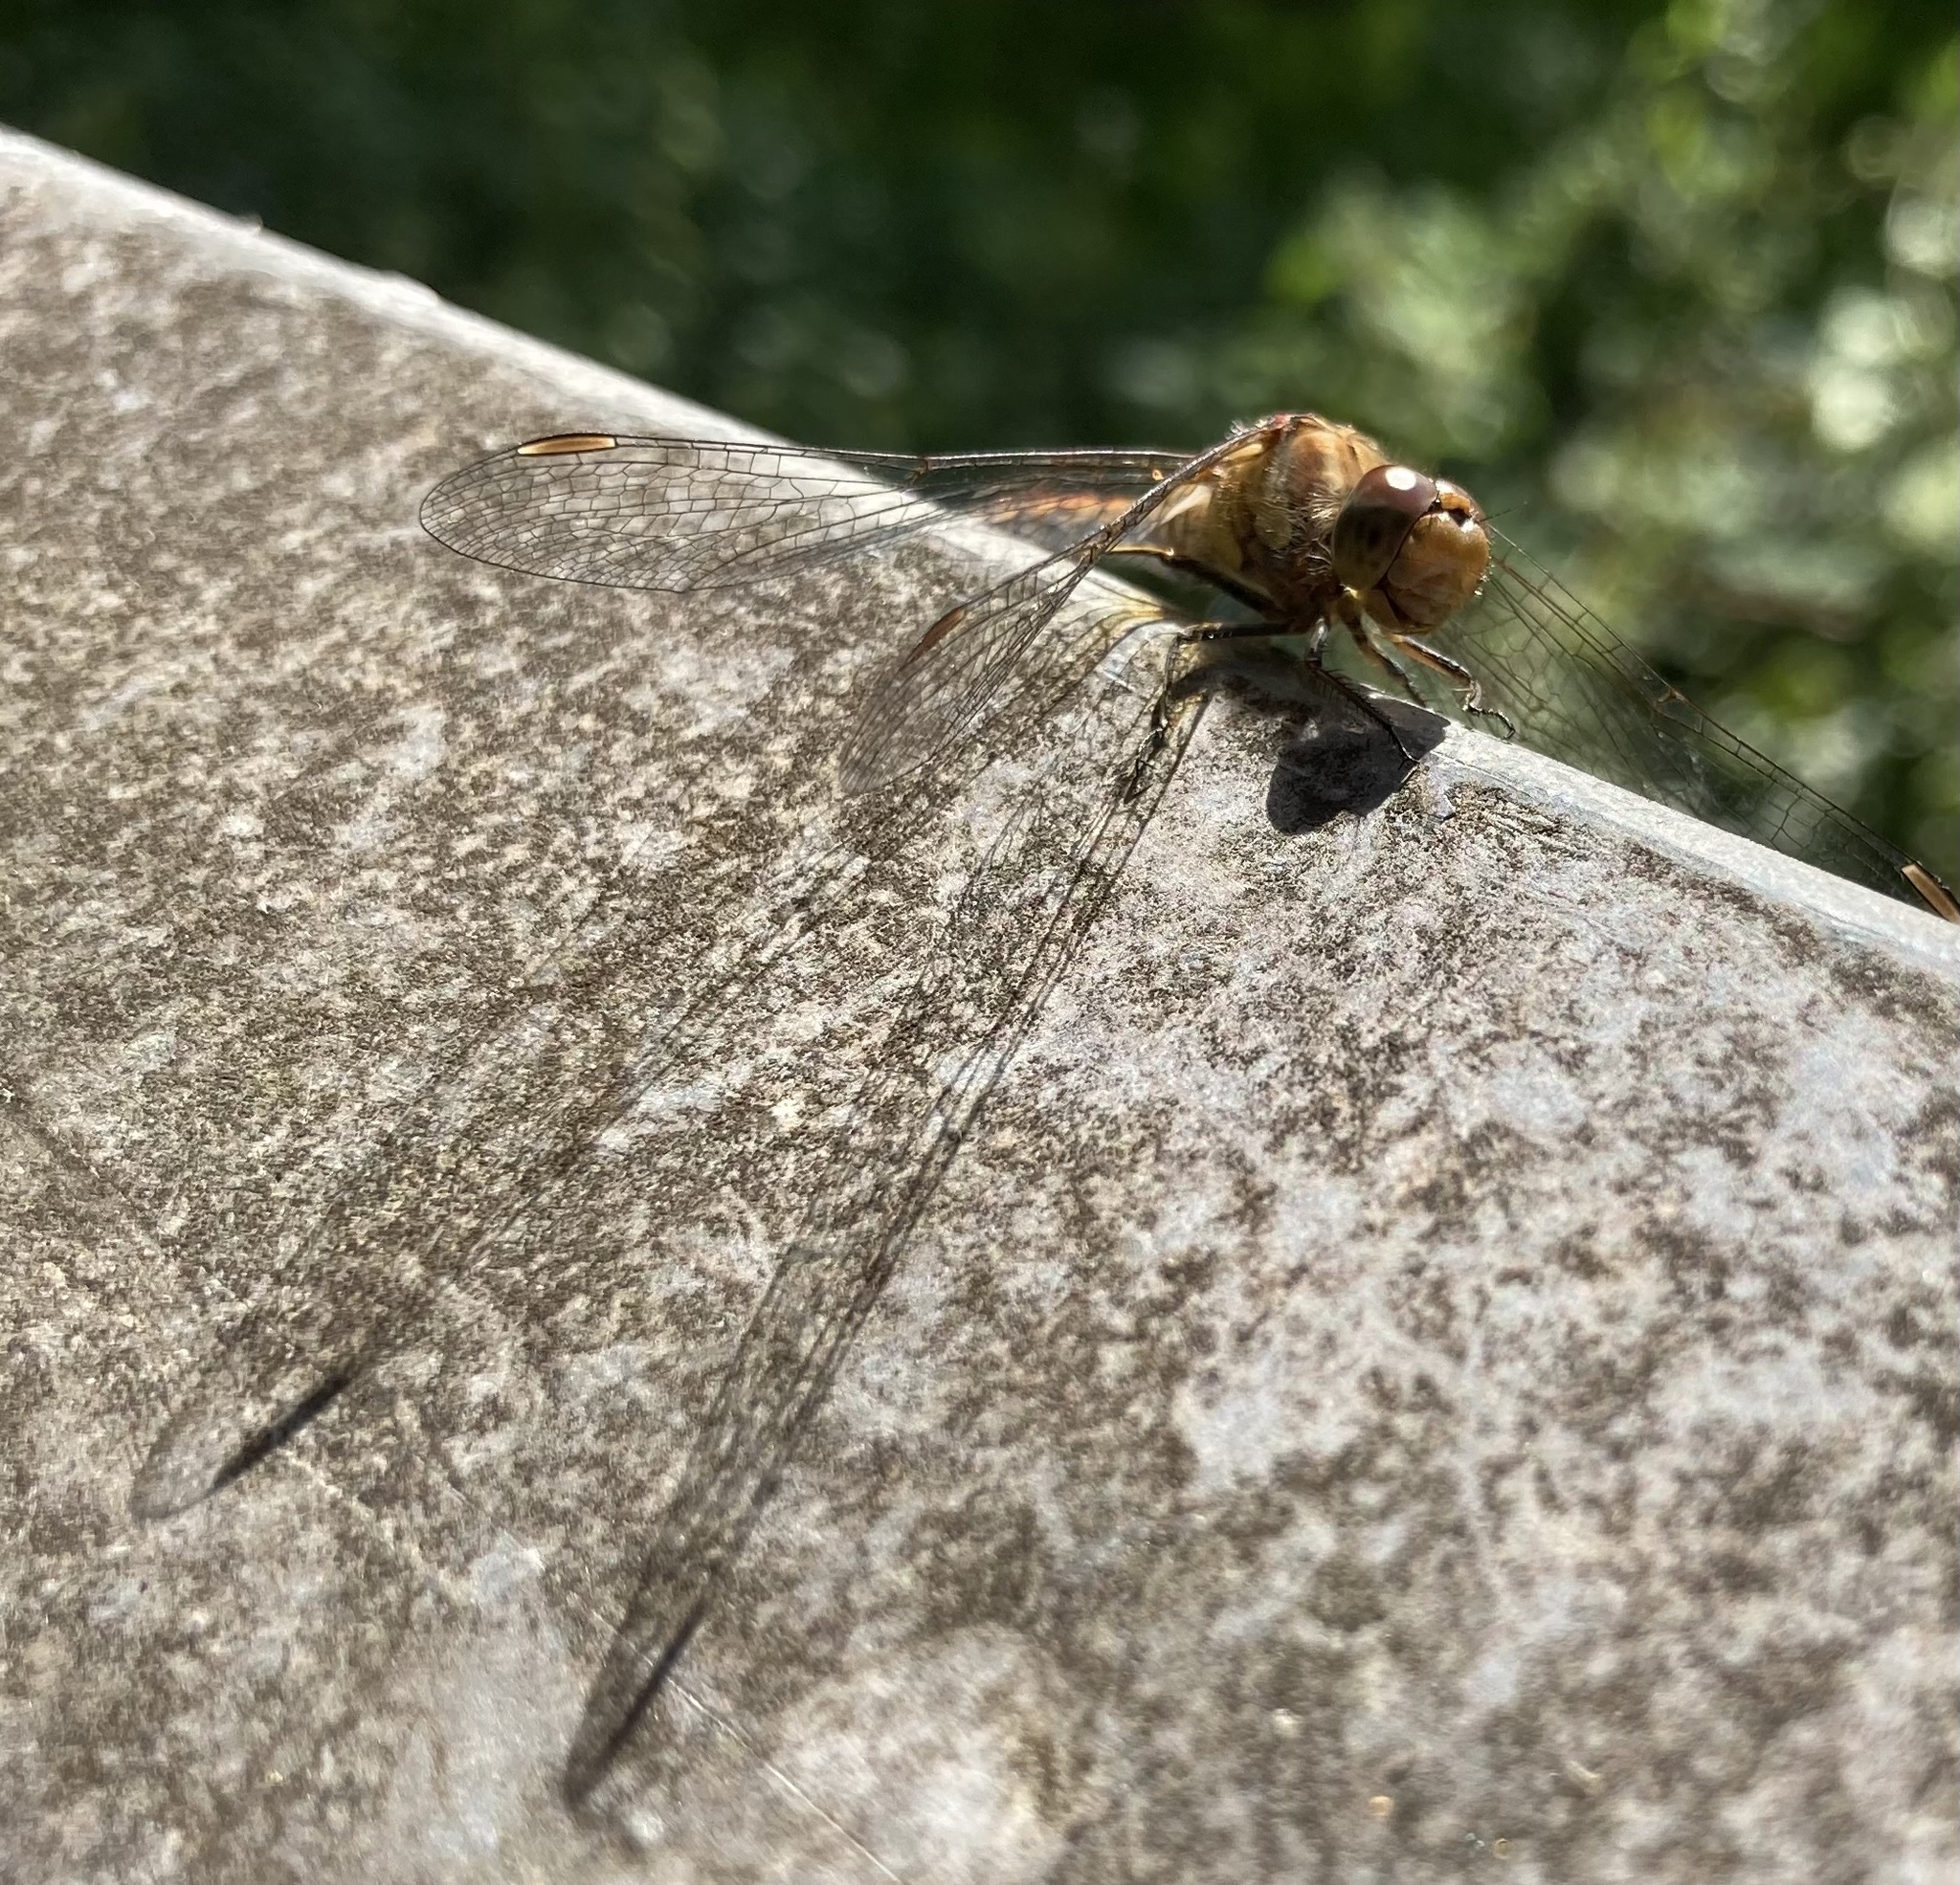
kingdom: Animalia
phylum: Arthropoda
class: Insecta
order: Odonata
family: Libellulidae
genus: Sympetrum
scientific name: Sympetrum striolatum
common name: Common darter
